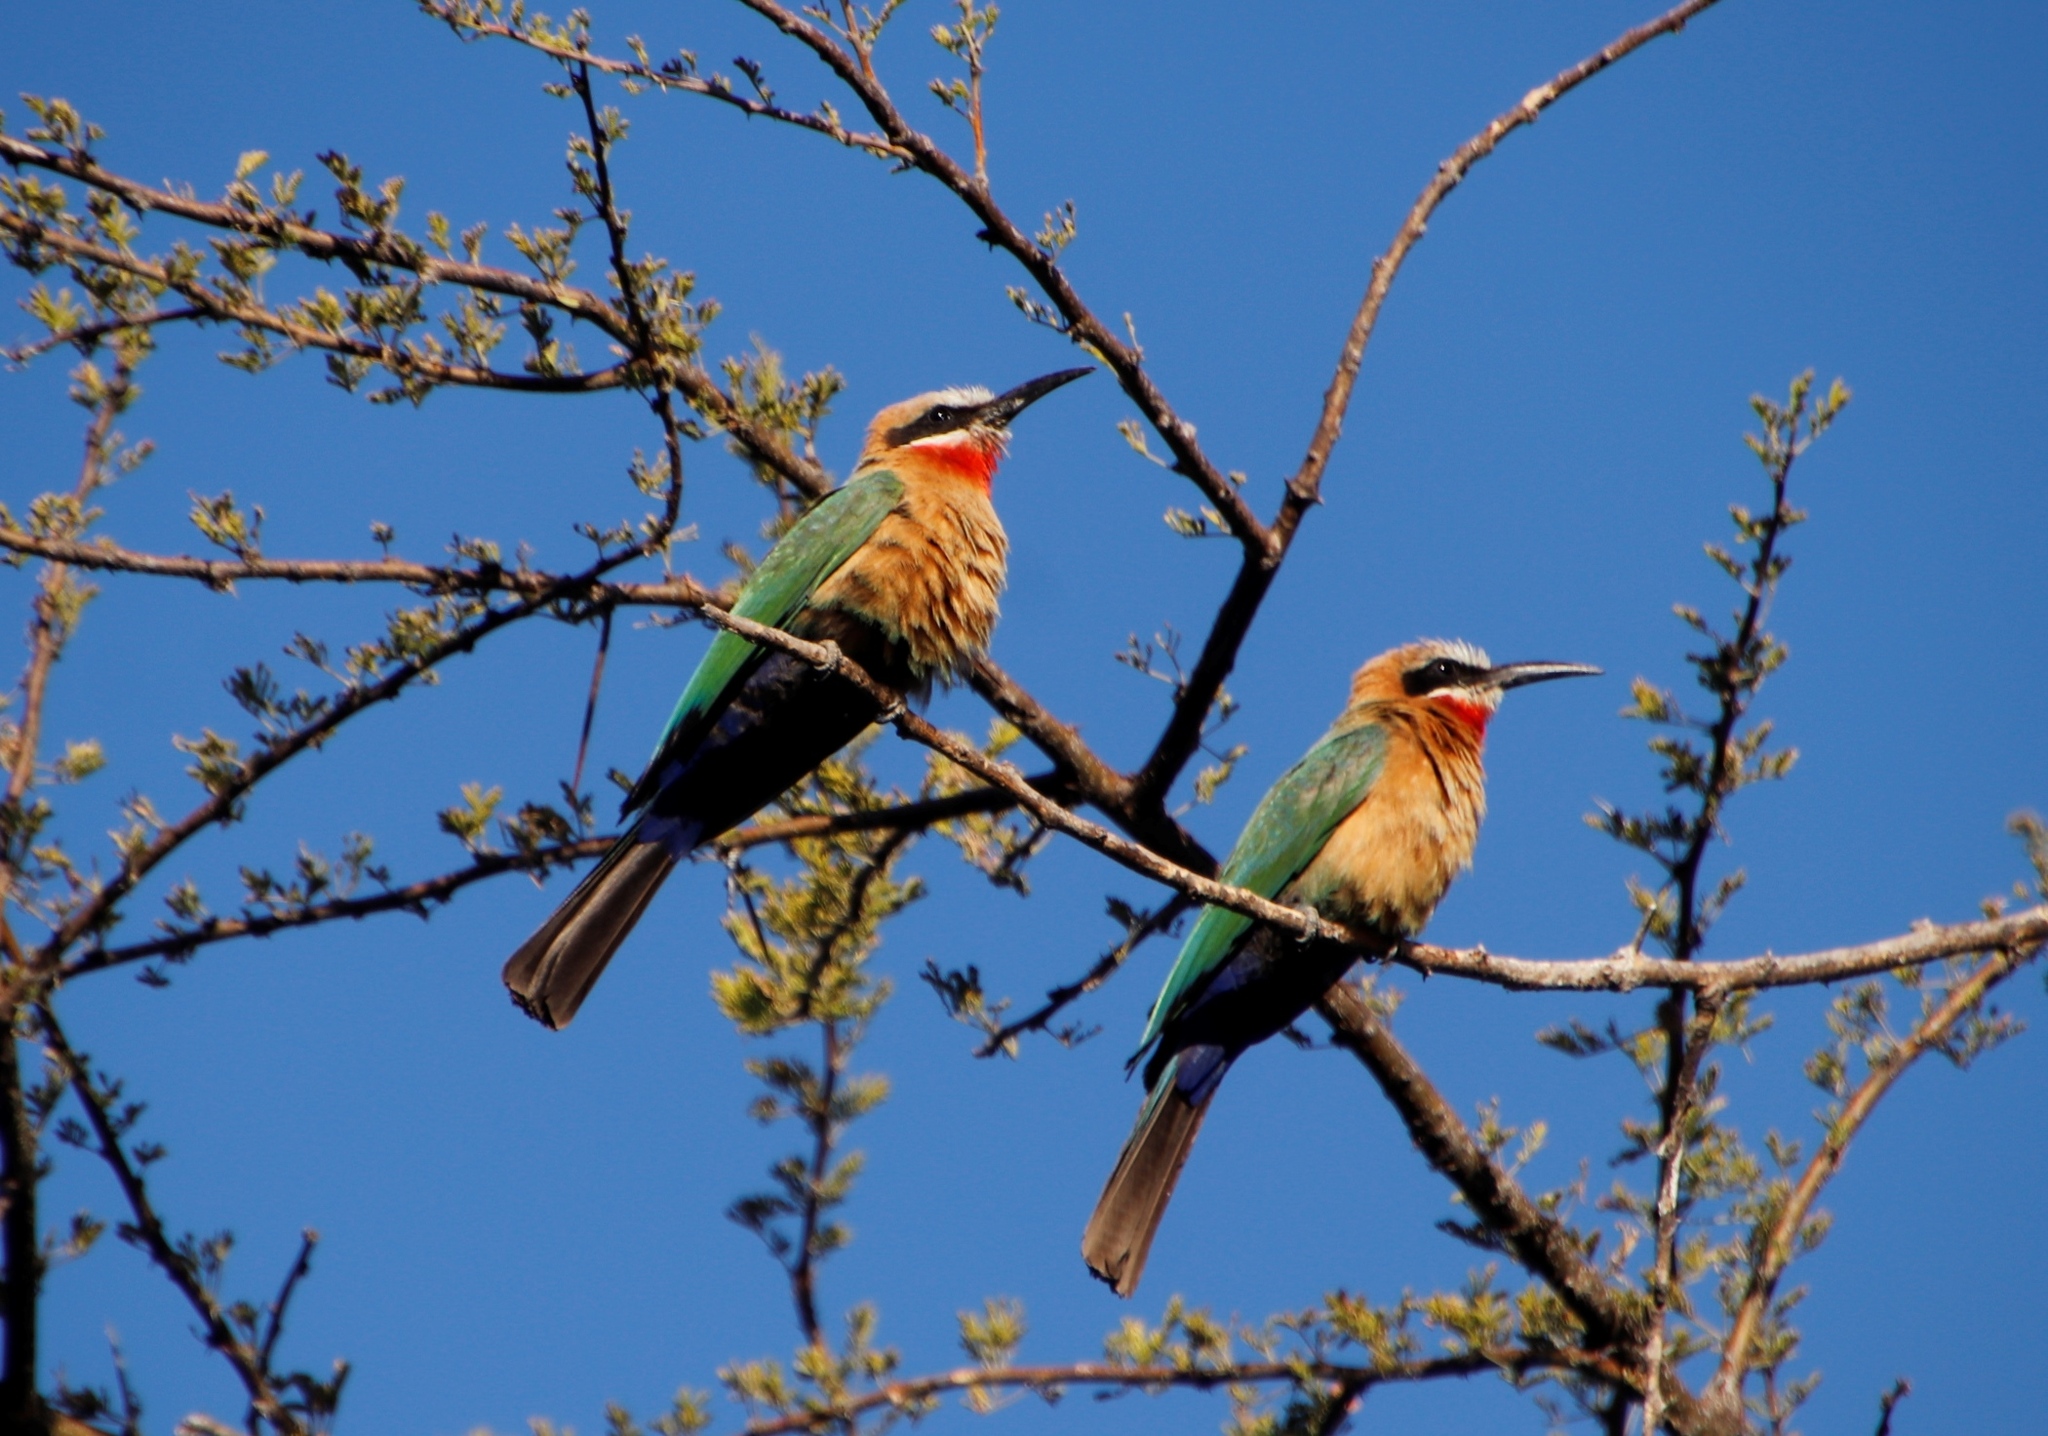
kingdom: Animalia
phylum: Chordata
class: Aves
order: Coraciiformes
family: Meropidae
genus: Merops
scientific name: Merops bullockoides
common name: White-fronted bee-eater
